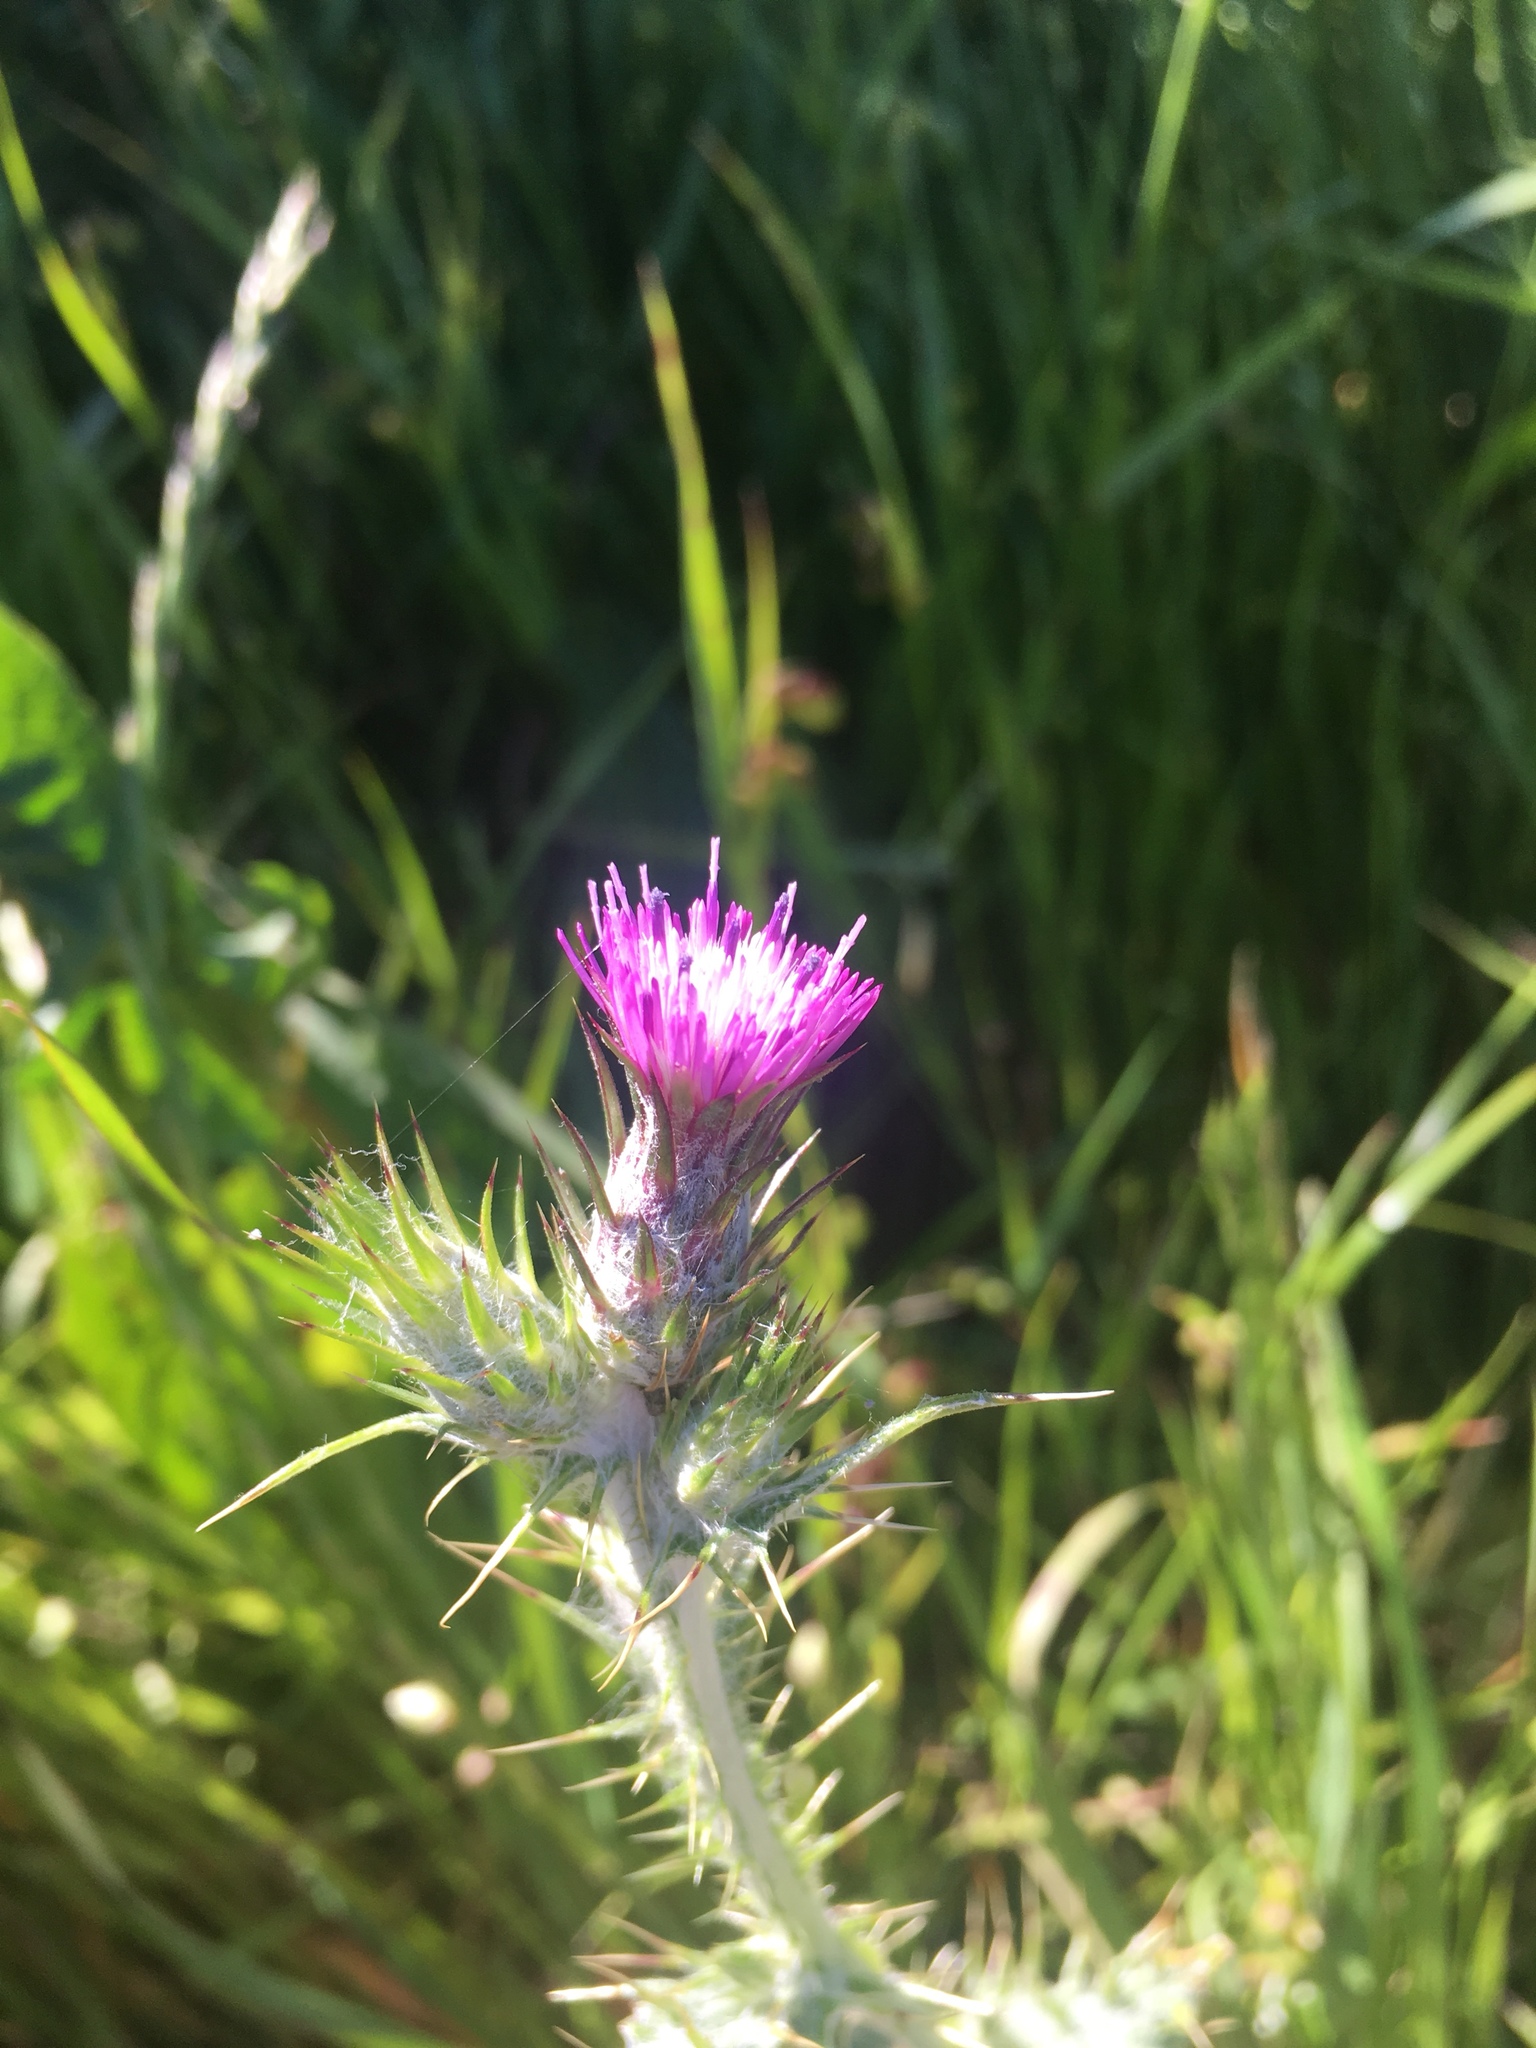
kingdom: Plantae
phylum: Tracheophyta
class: Magnoliopsida
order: Asterales
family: Asteraceae
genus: Carduus
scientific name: Carduus pycnocephalus
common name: Plymouth thistle
